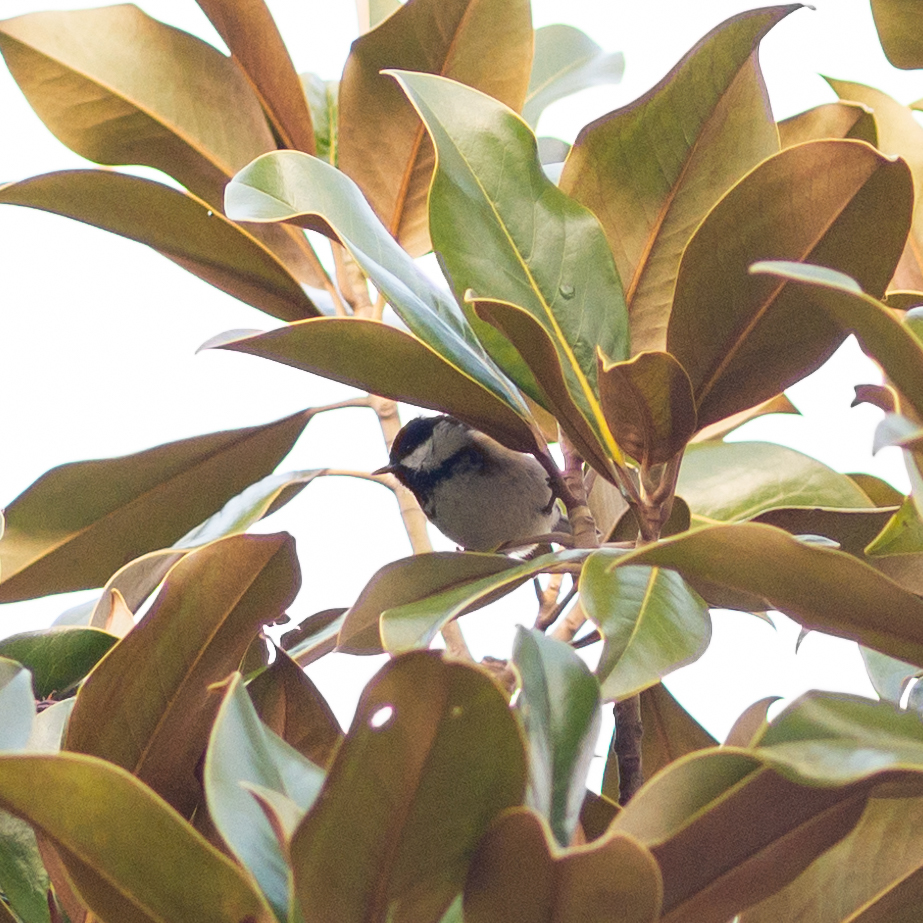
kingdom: Animalia
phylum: Chordata
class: Aves
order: Passeriformes
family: Paridae
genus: Periparus
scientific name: Periparus ater
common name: Coal tit
